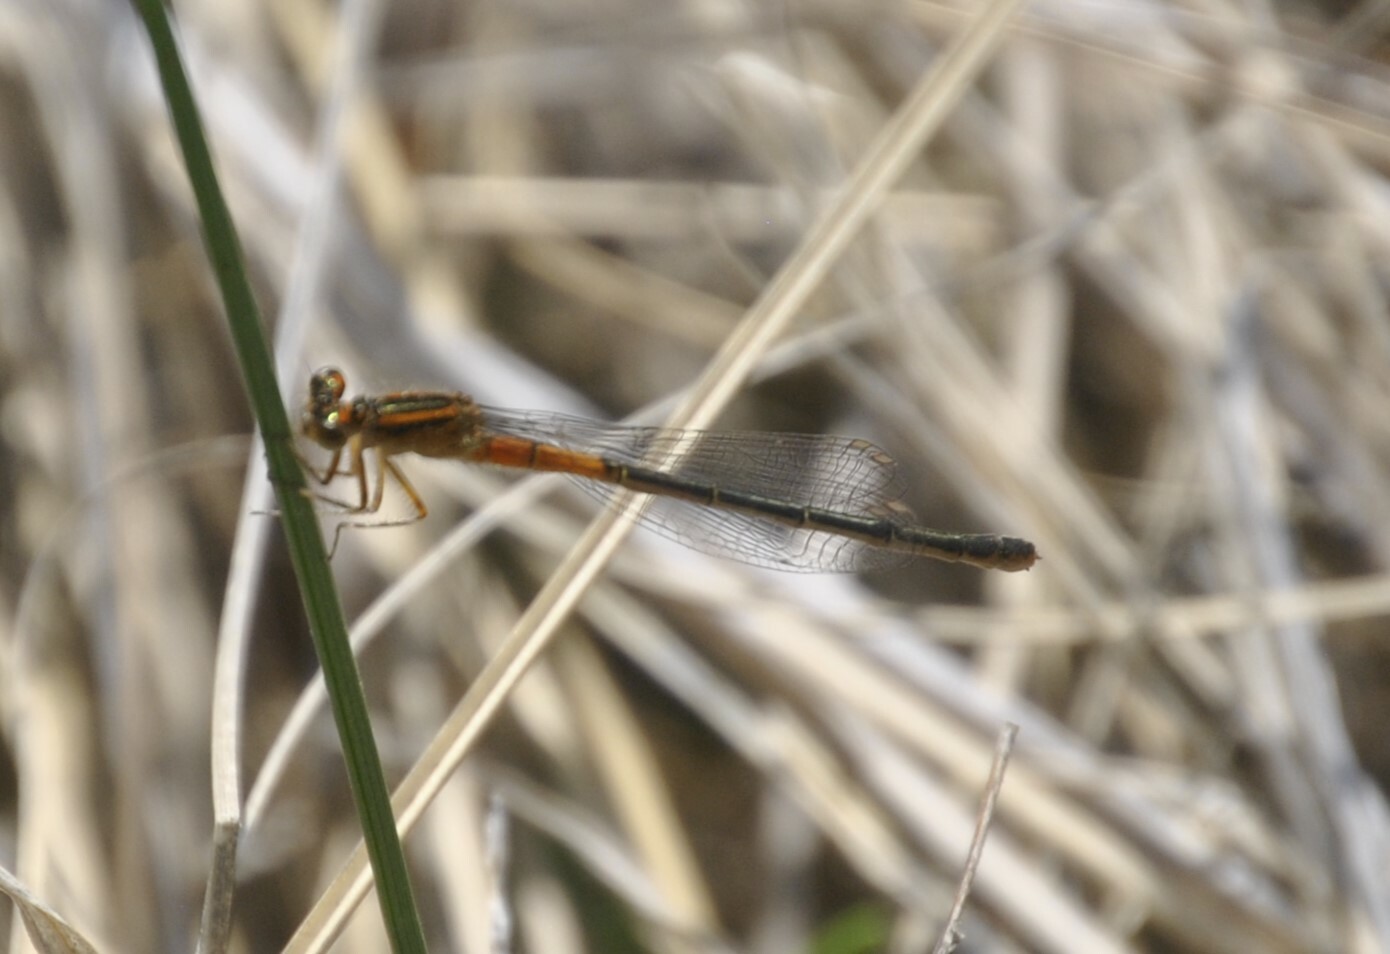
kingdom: Animalia
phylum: Arthropoda
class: Insecta
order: Odonata
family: Coenagrionidae
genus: Ischnura
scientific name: Ischnura verticalis
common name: Eastern forktail
